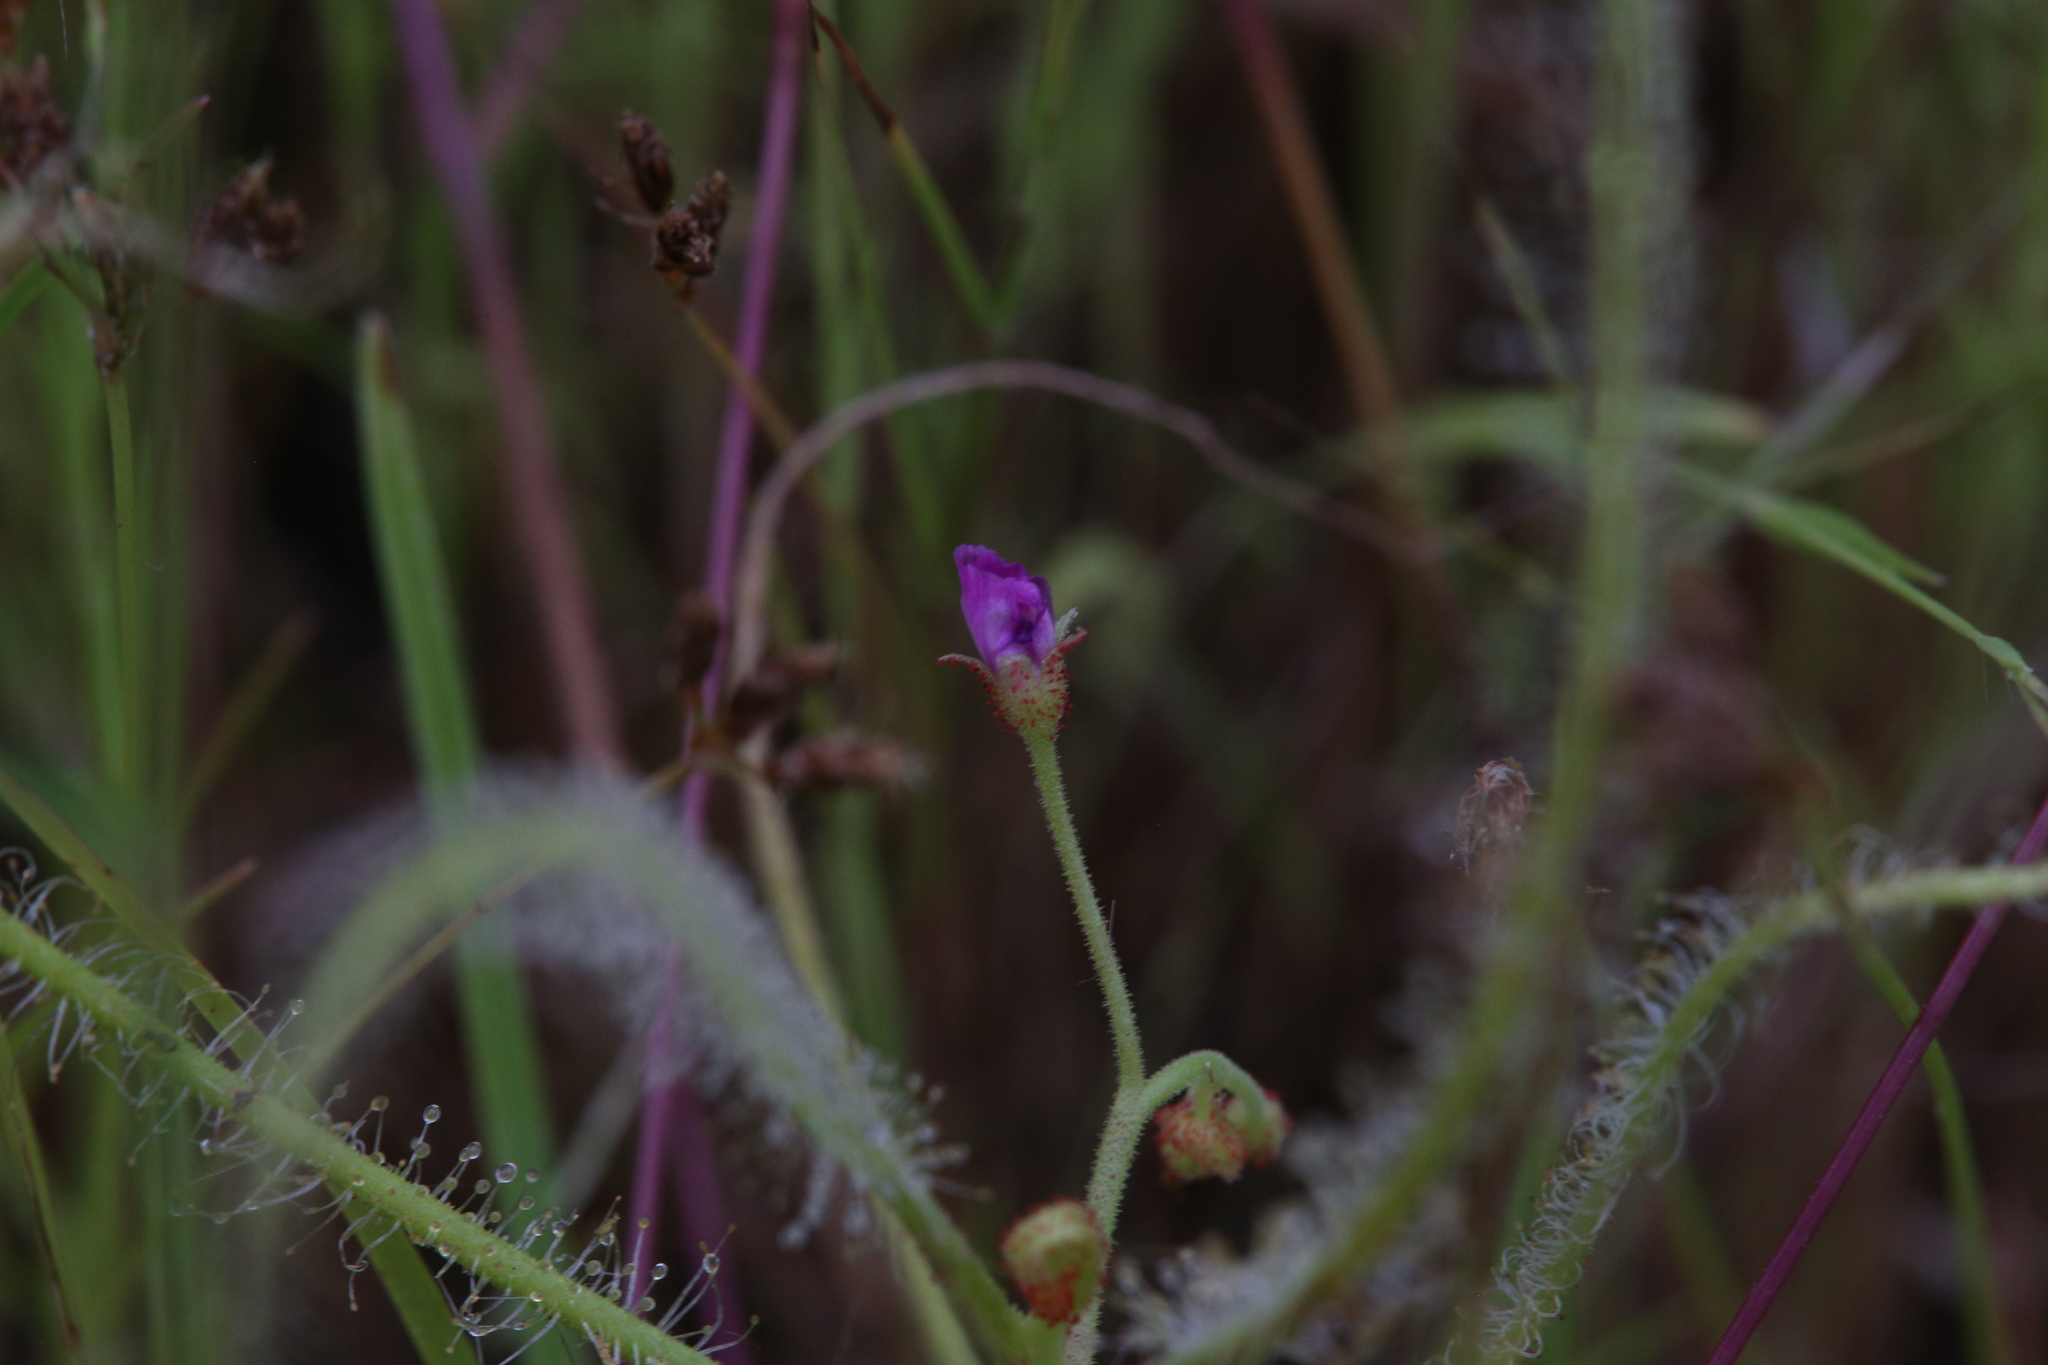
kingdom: Plantae
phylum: Tracheophyta
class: Magnoliopsida
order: Caryophyllales
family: Droseraceae
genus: Drosera
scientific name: Drosera indica
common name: Indian sundew
